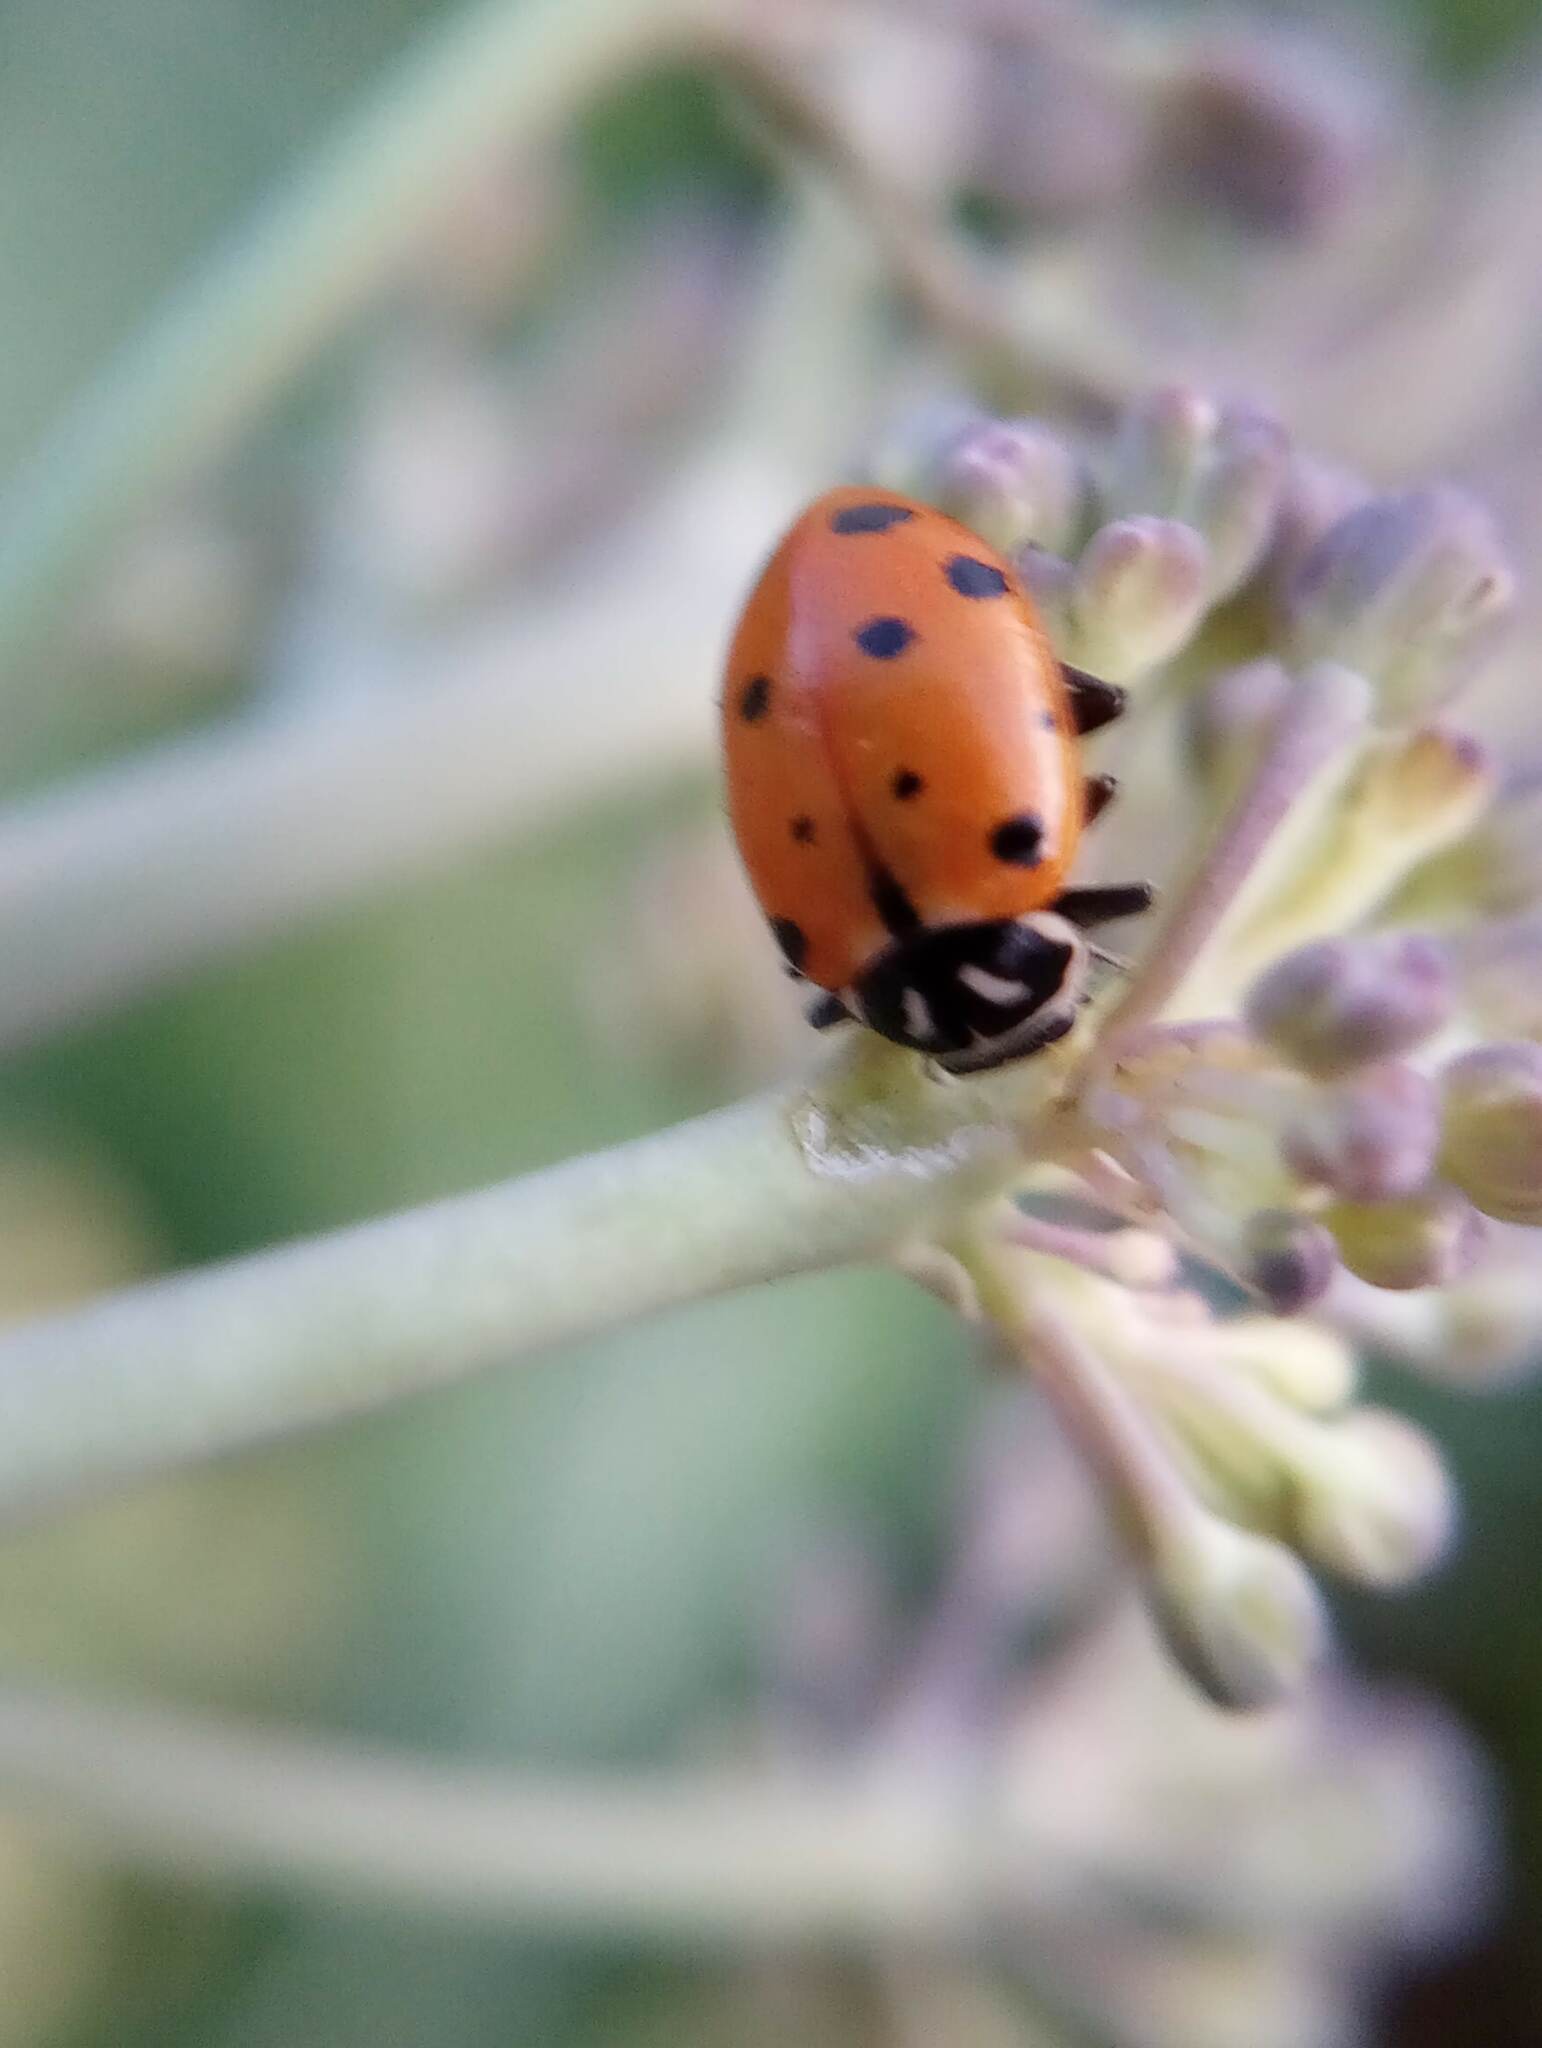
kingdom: Animalia
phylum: Arthropoda
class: Insecta
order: Coleoptera
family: Coccinellidae
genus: Hippodamia
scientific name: Hippodamia convergens
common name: Convergent lady beetle
